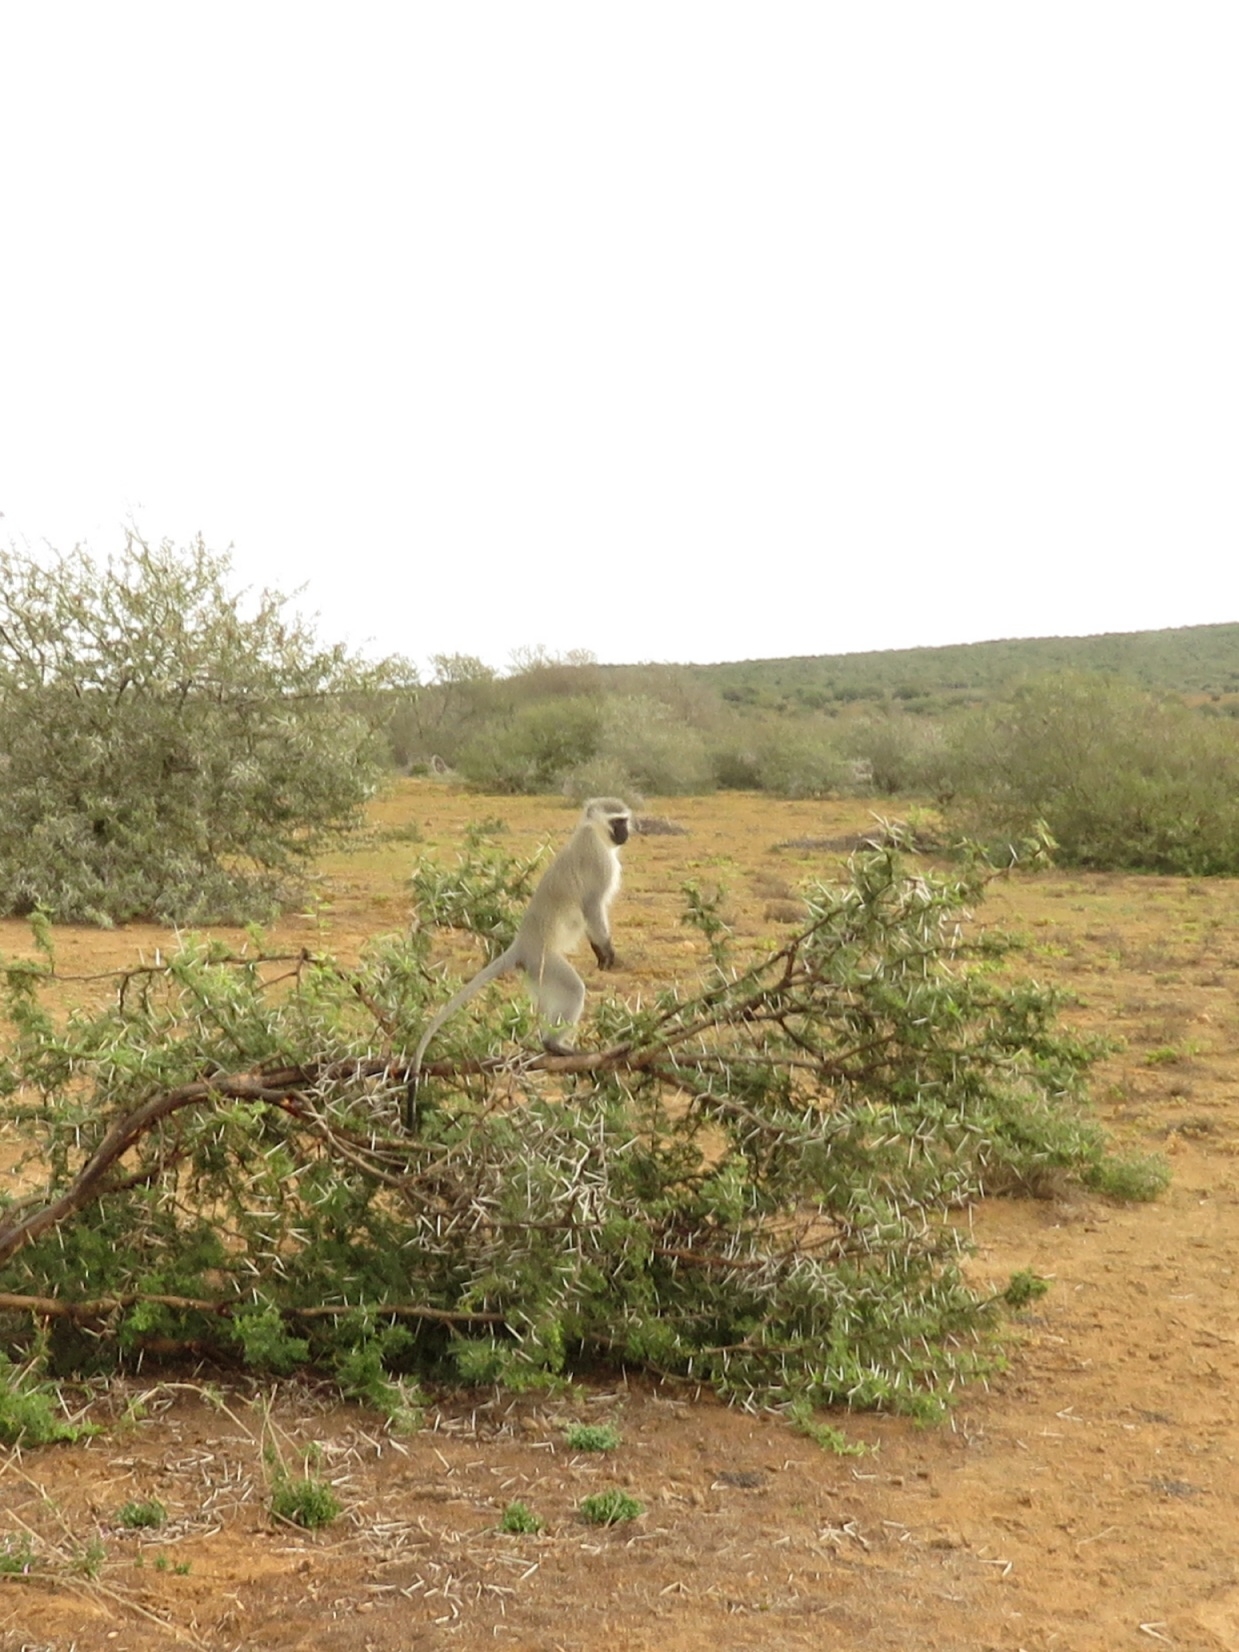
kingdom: Animalia
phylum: Chordata
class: Mammalia
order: Primates
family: Cercopithecidae
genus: Chlorocebus
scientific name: Chlorocebus pygerythrus
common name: Vervet monkey
